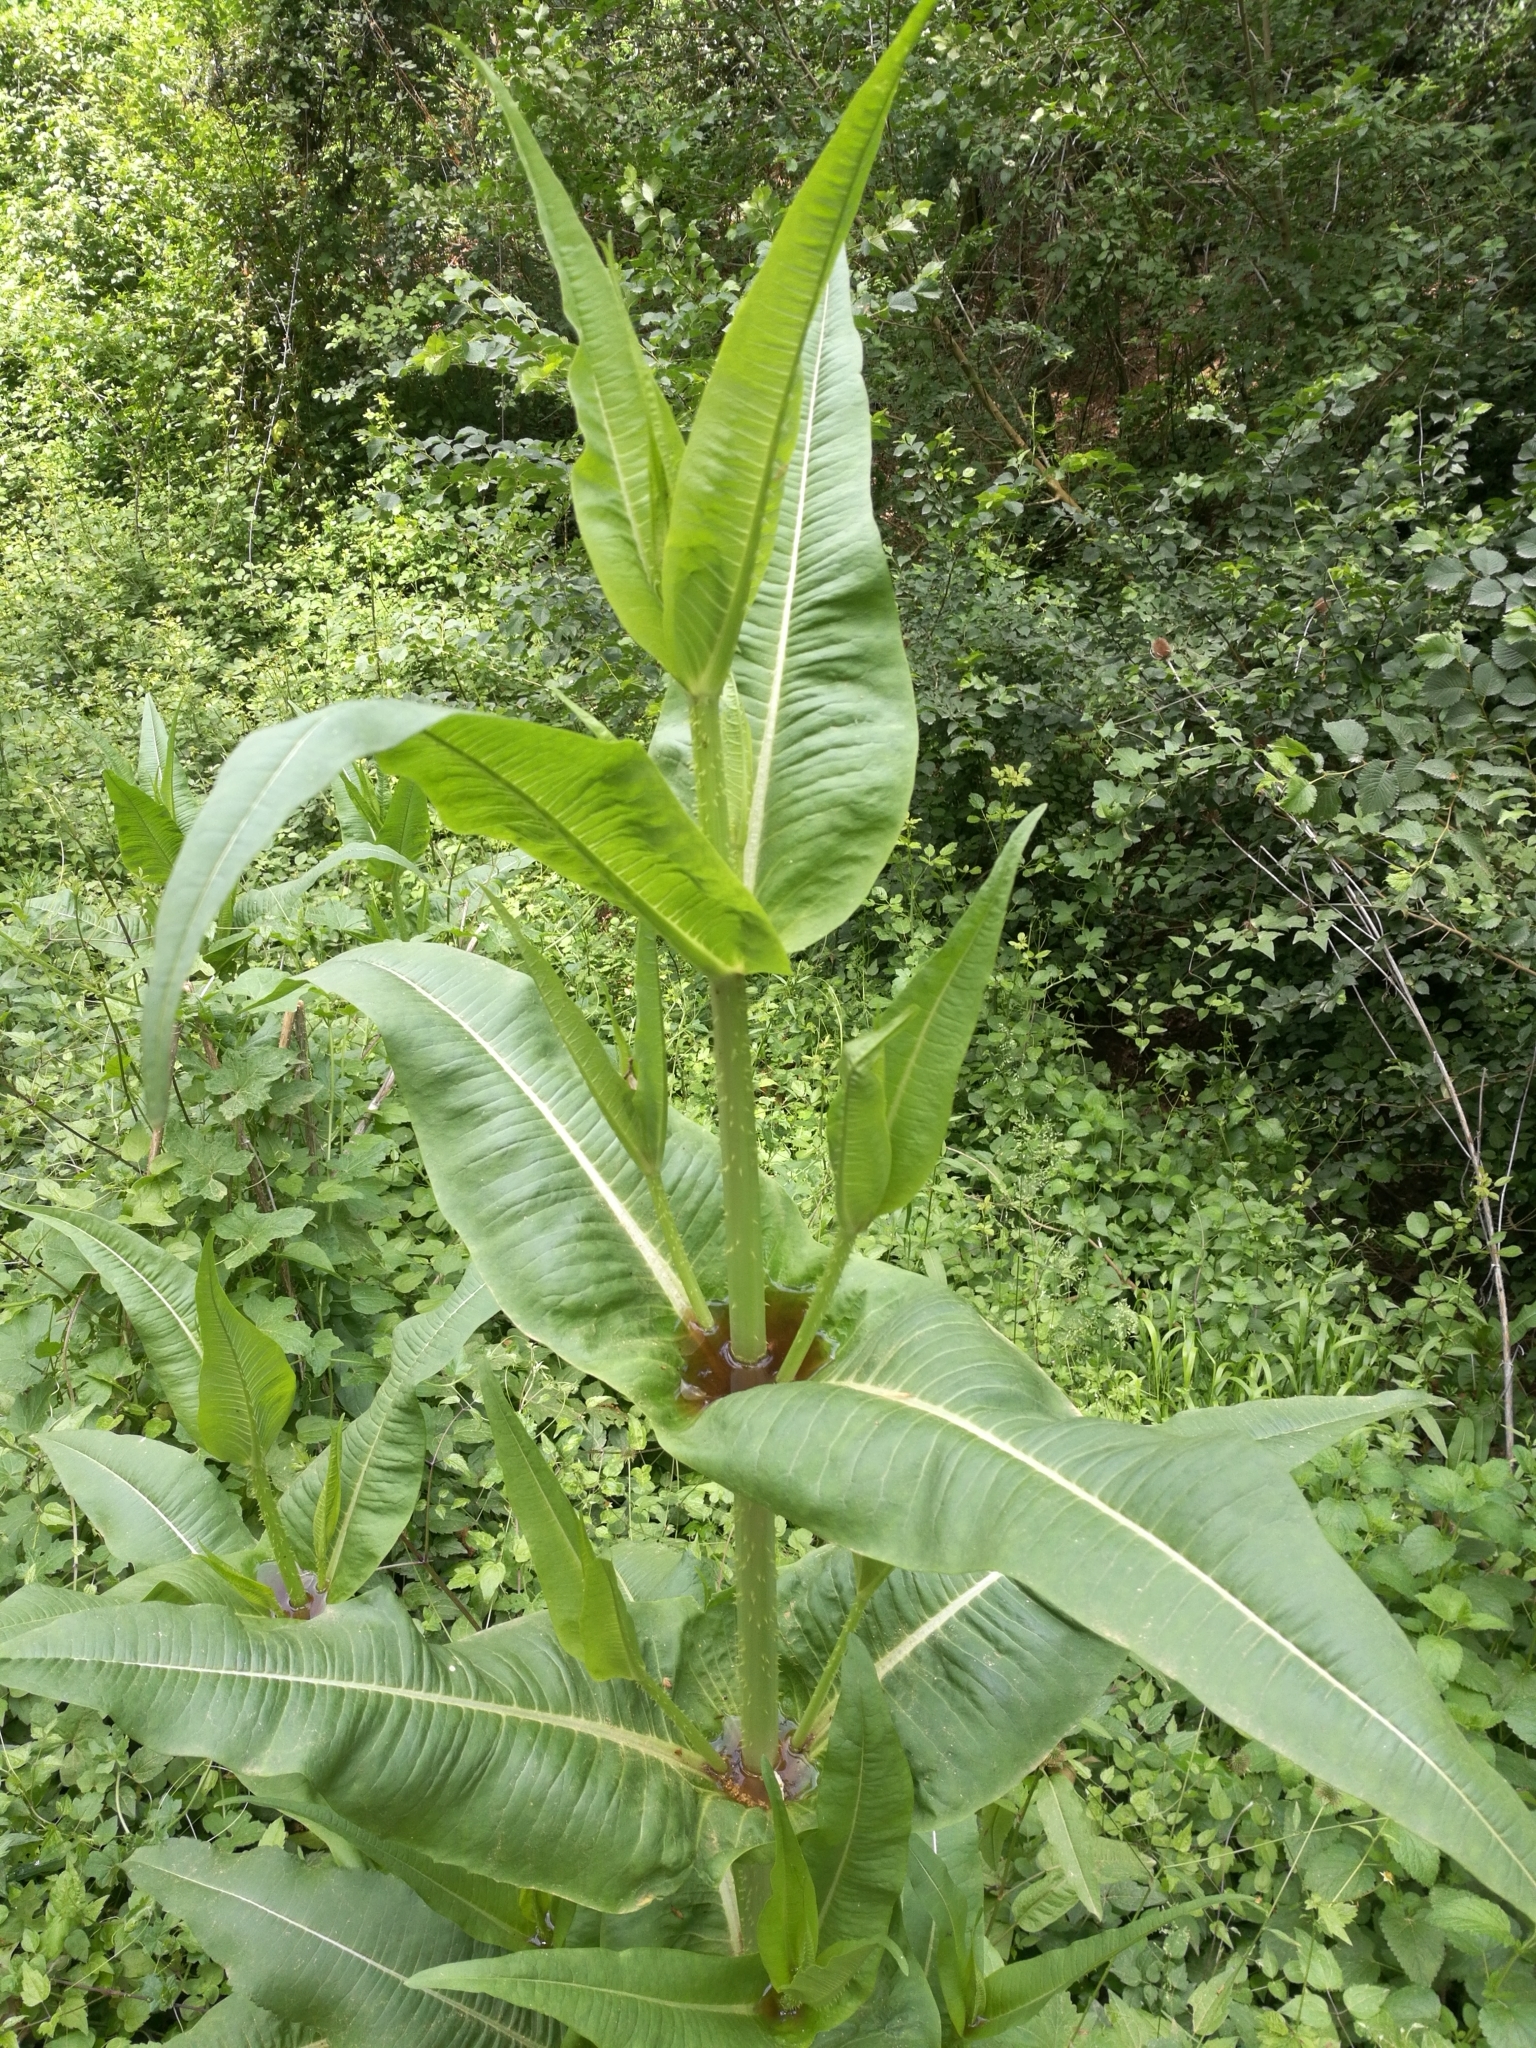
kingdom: Plantae
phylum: Tracheophyta
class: Magnoliopsida
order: Dipsacales
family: Caprifoliaceae
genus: Dipsacus
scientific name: Dipsacus fullonum
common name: Teasel
